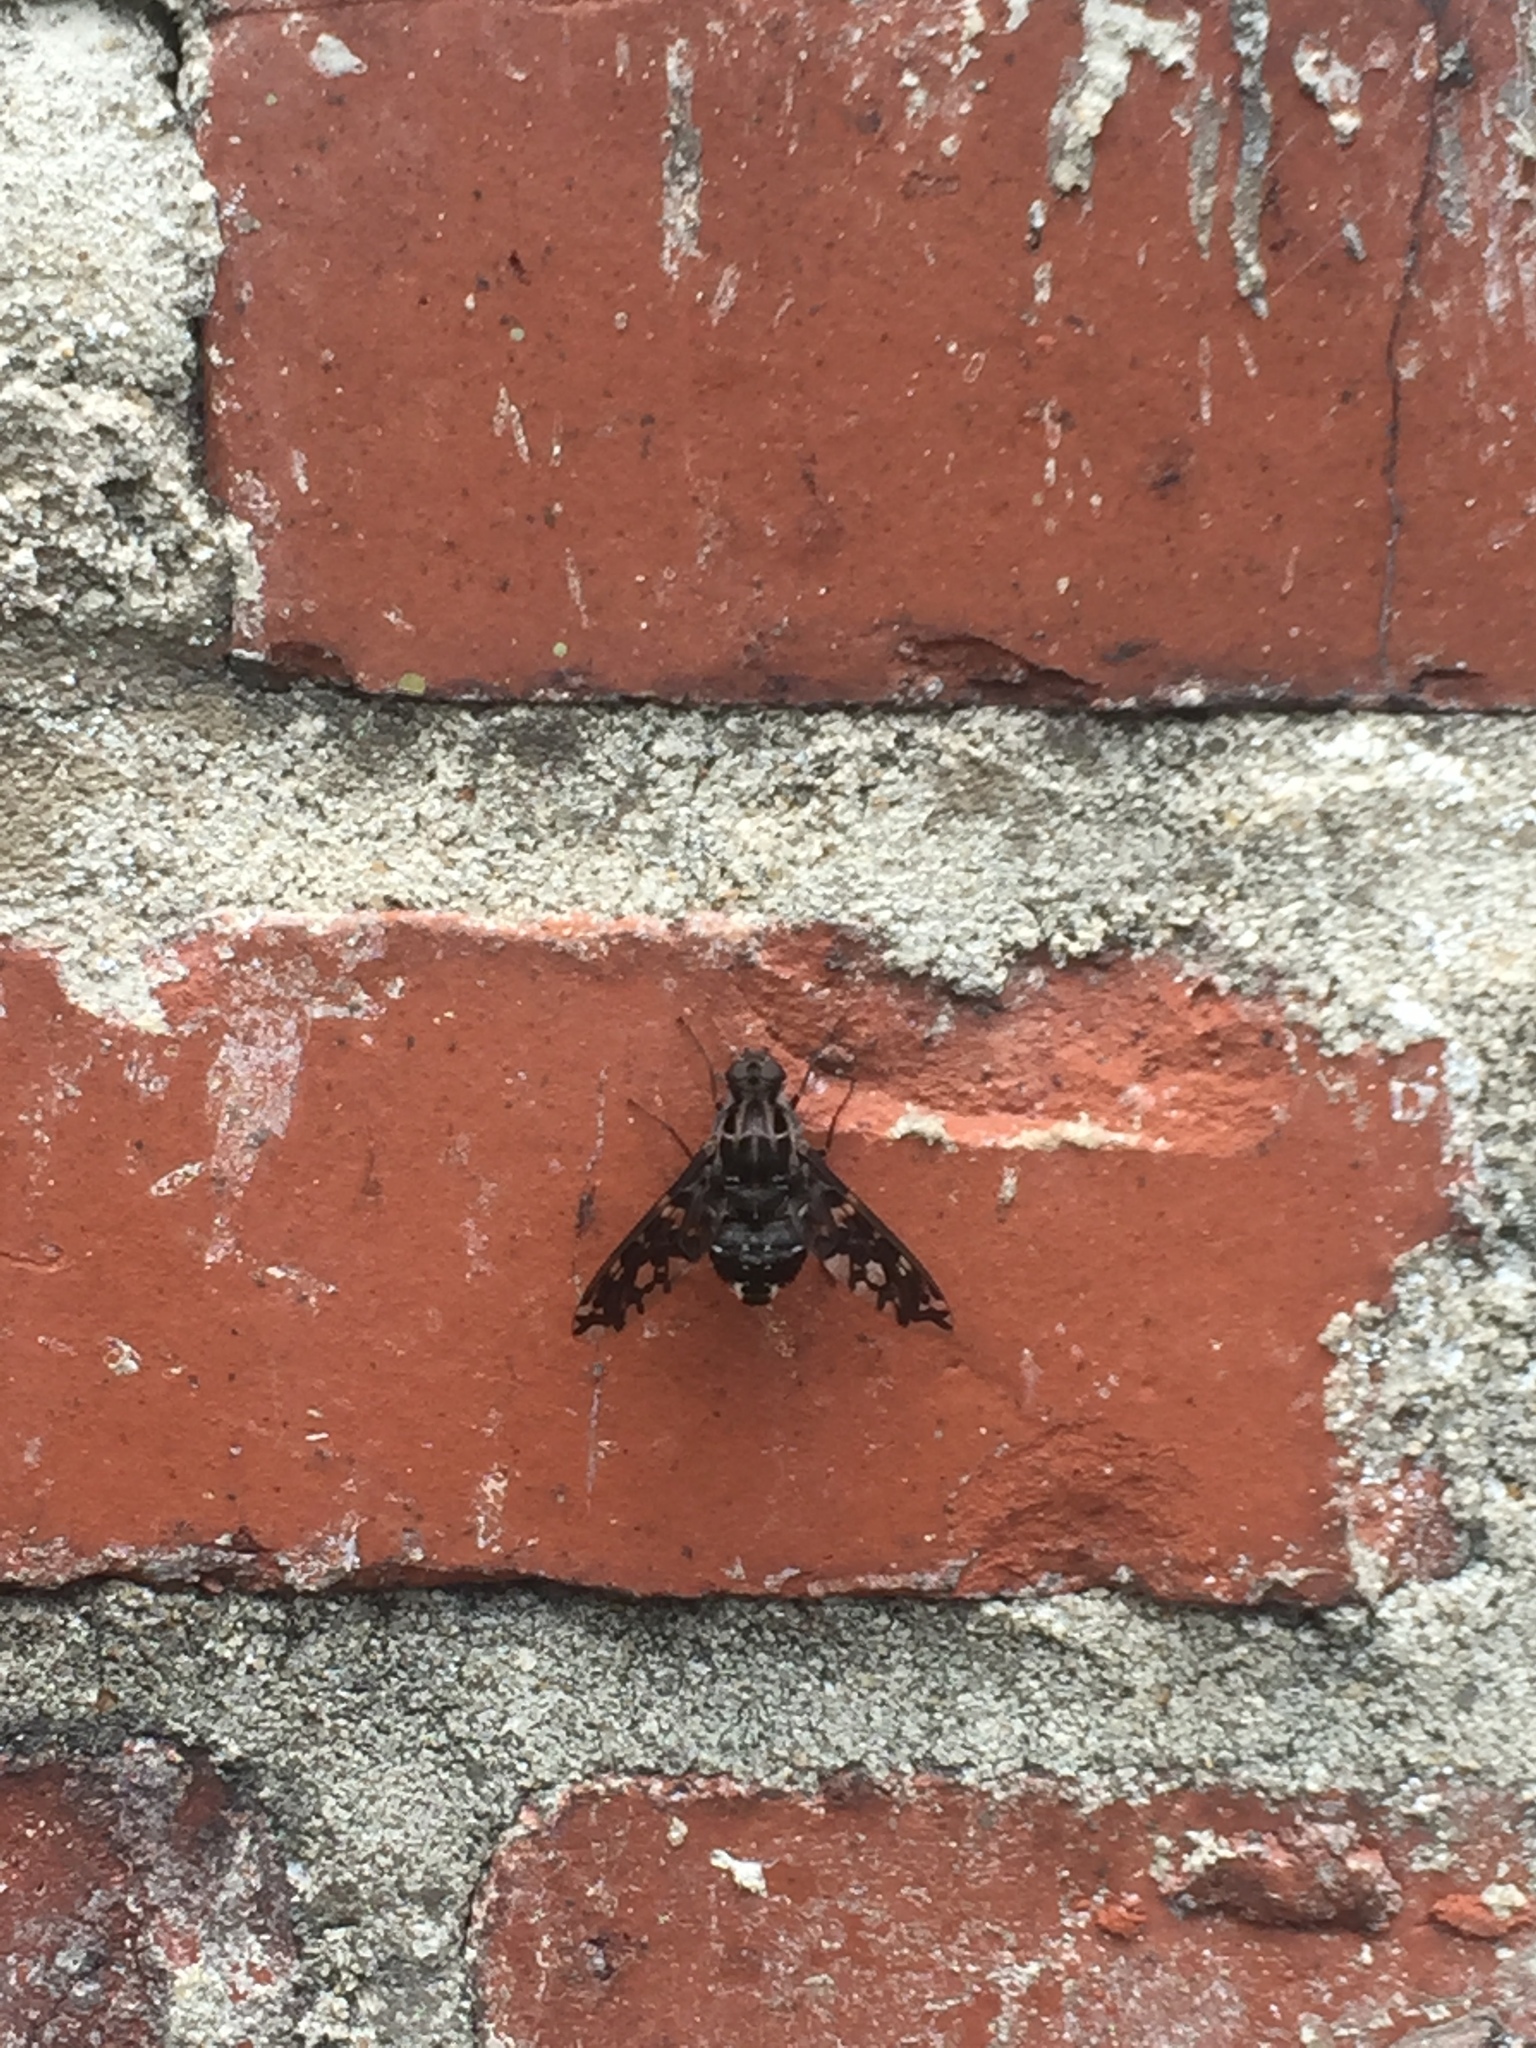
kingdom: Animalia
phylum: Arthropoda
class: Insecta
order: Diptera
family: Bombyliidae
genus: Xenox
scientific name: Xenox tigrinus
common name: Tiger bee fly
